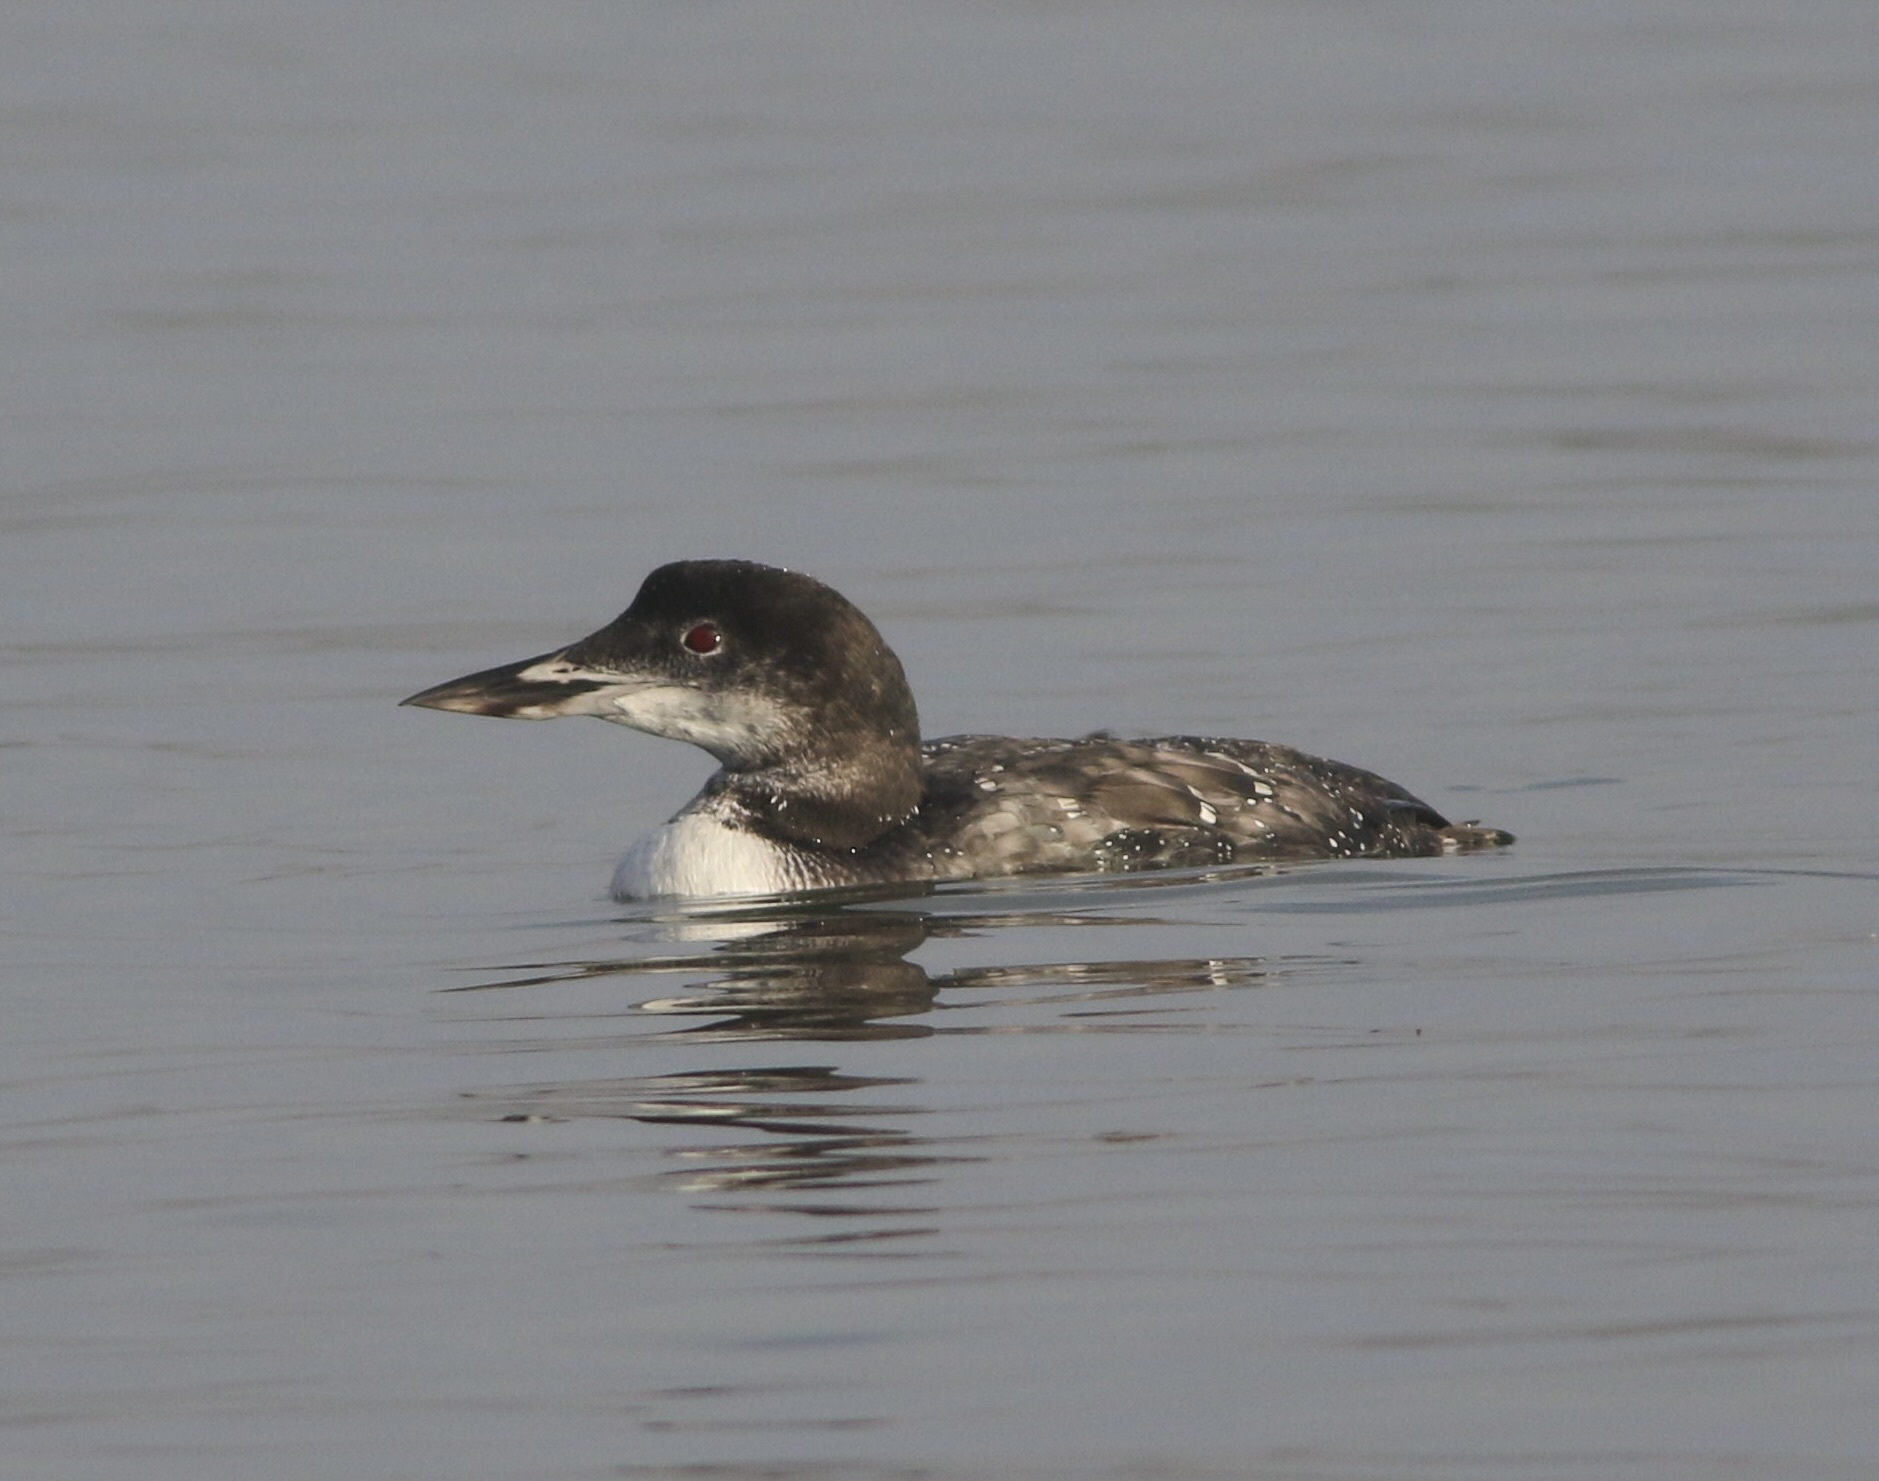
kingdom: Animalia
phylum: Chordata
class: Aves
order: Gaviiformes
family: Gaviidae
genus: Gavia
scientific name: Gavia immer
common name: Common loon
